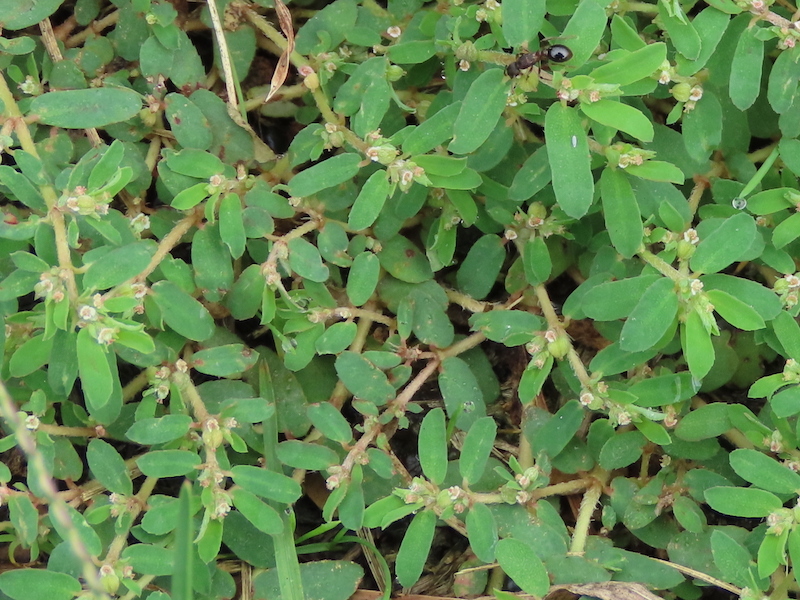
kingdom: Plantae
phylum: Tracheophyta
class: Magnoliopsida
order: Malpighiales
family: Euphorbiaceae
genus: Euphorbia
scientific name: Euphorbia maculata
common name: Spotted spurge
